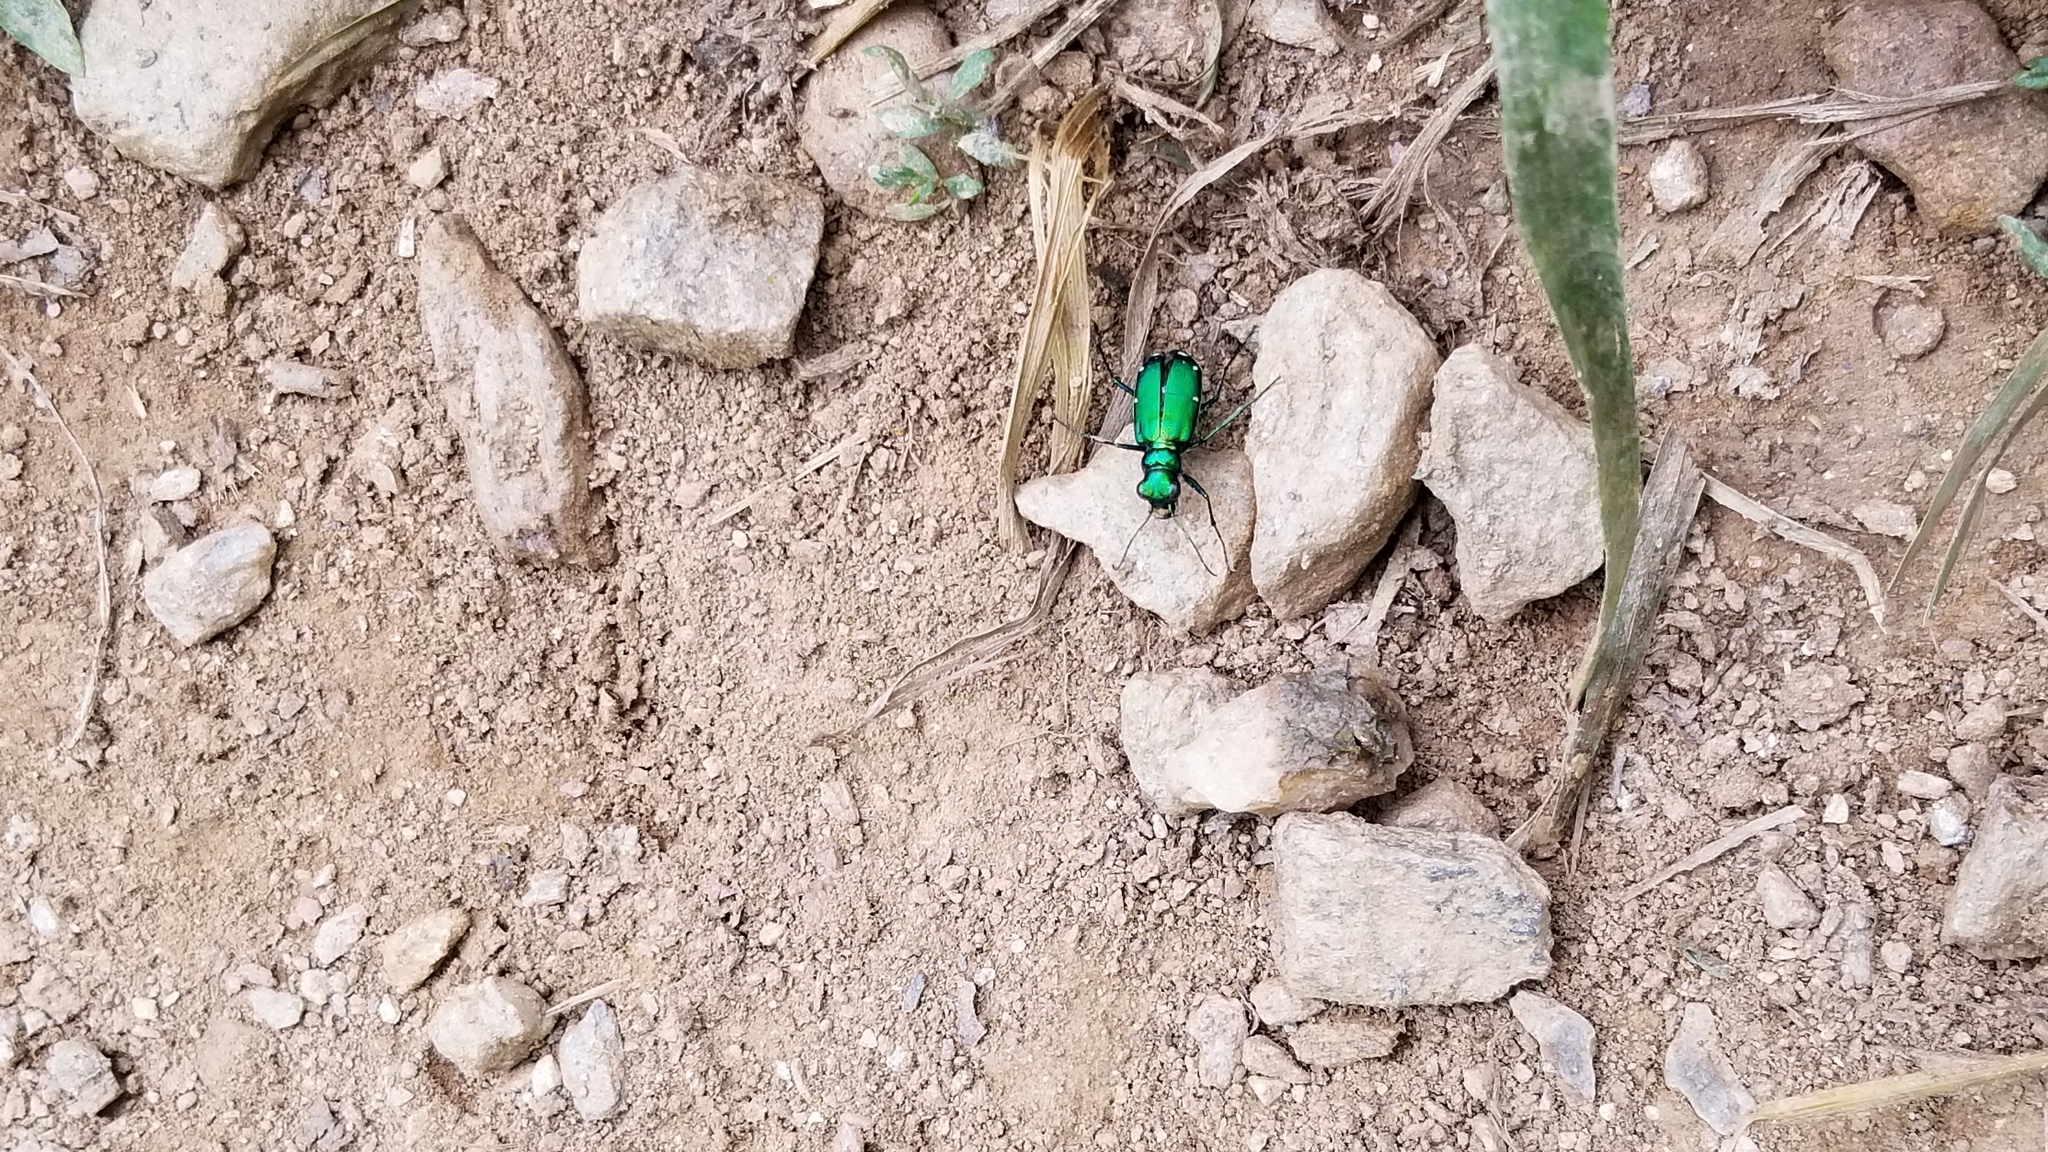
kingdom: Animalia
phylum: Arthropoda
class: Insecta
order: Coleoptera
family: Carabidae
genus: Cicindela
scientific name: Cicindela sexguttata
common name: Six-spotted tiger beetle
